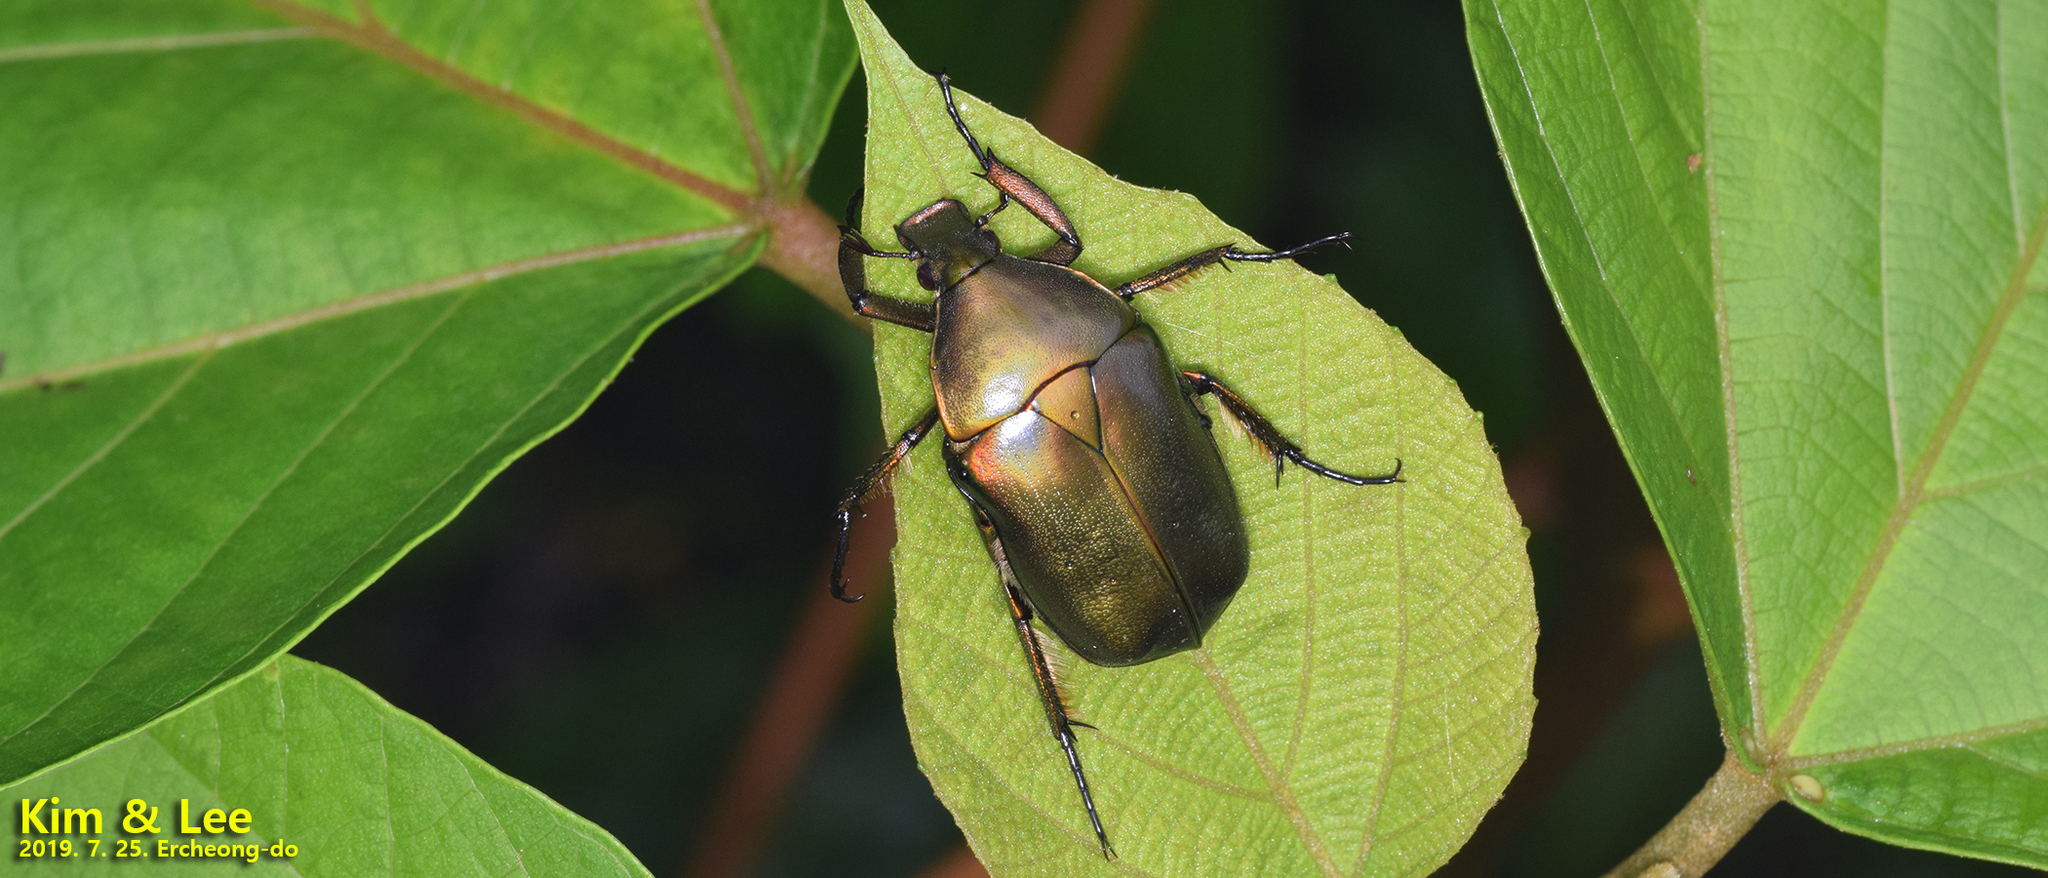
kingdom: Animalia
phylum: Arthropoda
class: Insecta
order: Coleoptera
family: Scarabaeidae
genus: Pseudotorynorrhina
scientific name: Pseudotorynorrhina japonica
